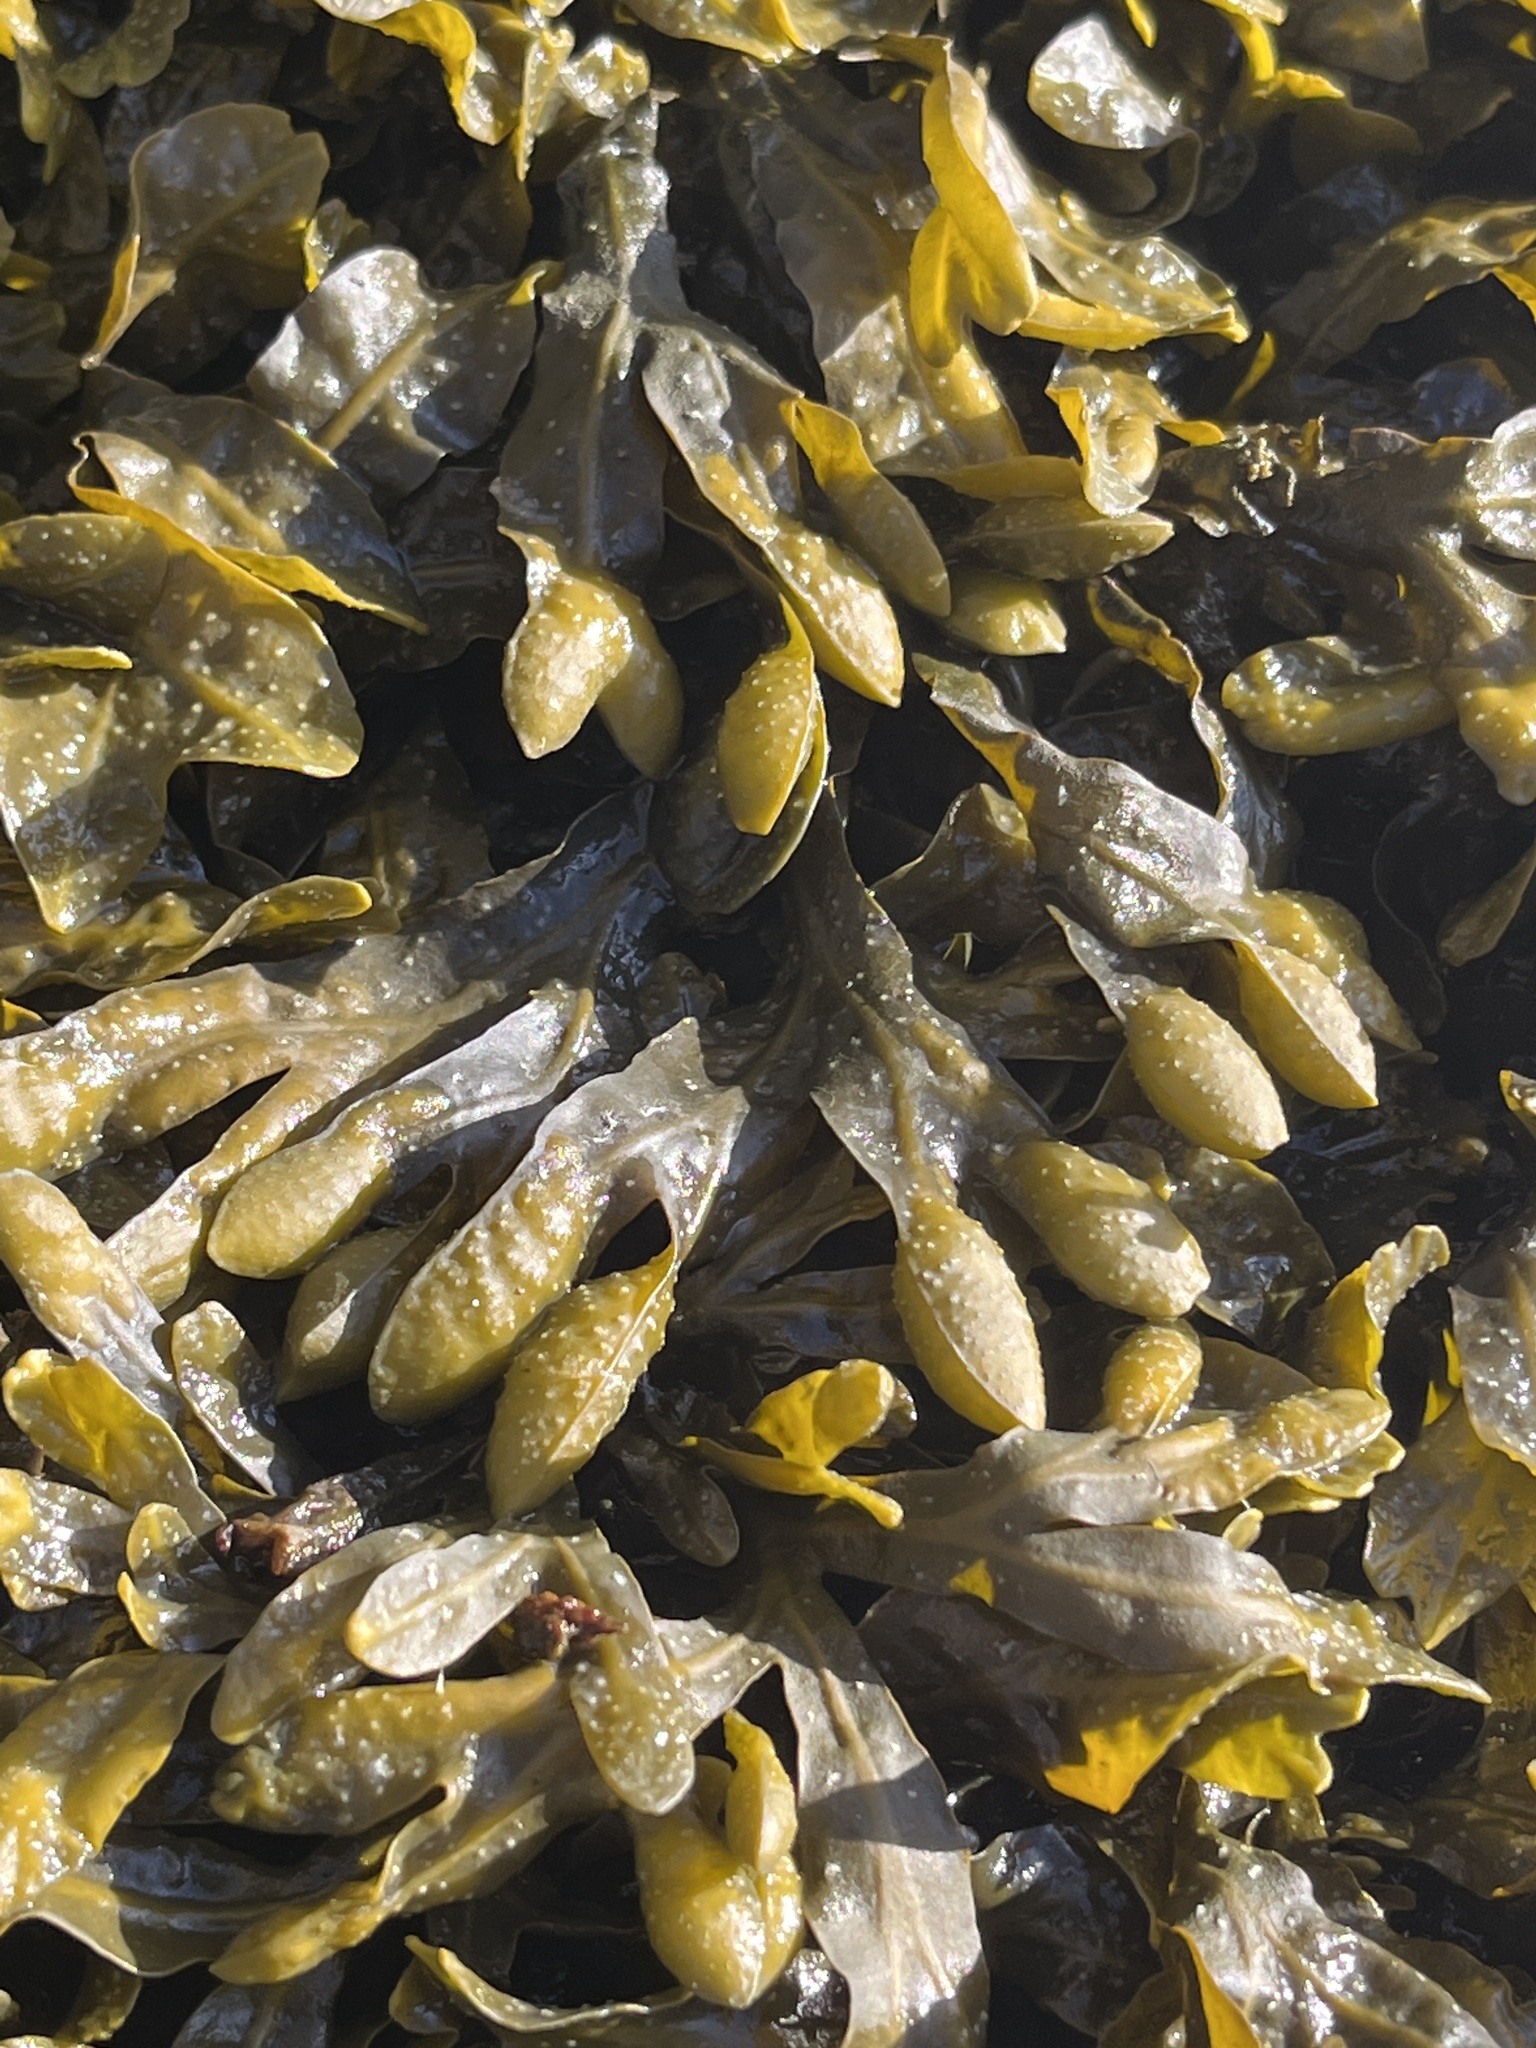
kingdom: Chromista
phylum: Ochrophyta
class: Phaeophyceae
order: Fucales
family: Fucaceae
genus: Fucus
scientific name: Fucus spiralis
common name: Spiral wrack
